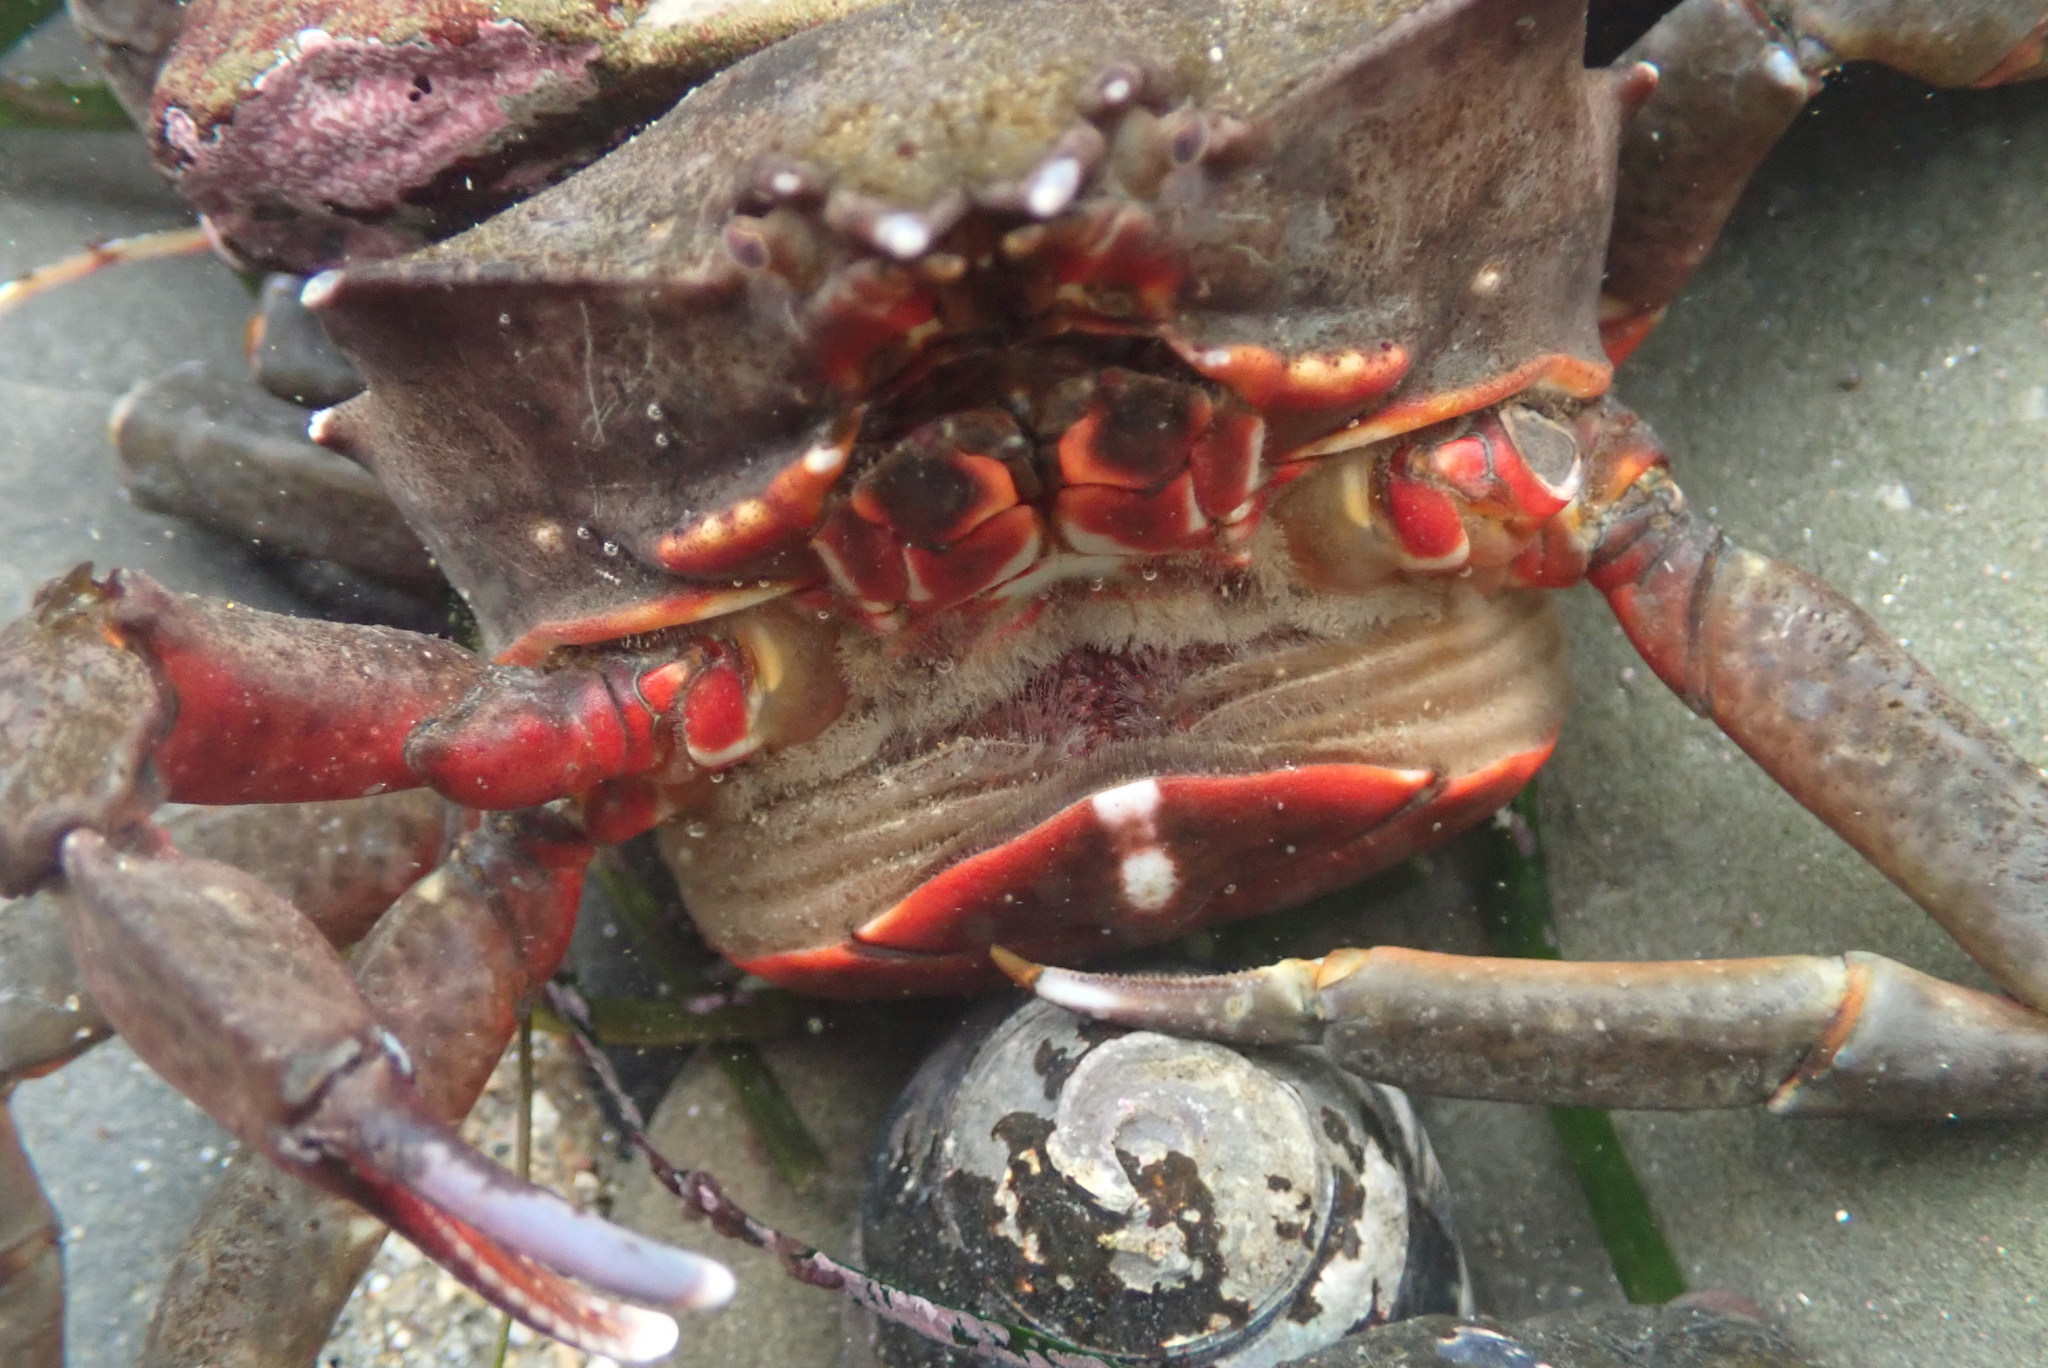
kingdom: Animalia
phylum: Arthropoda
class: Malacostraca
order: Decapoda
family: Epialtidae
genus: Pugettia
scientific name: Pugettia producta
